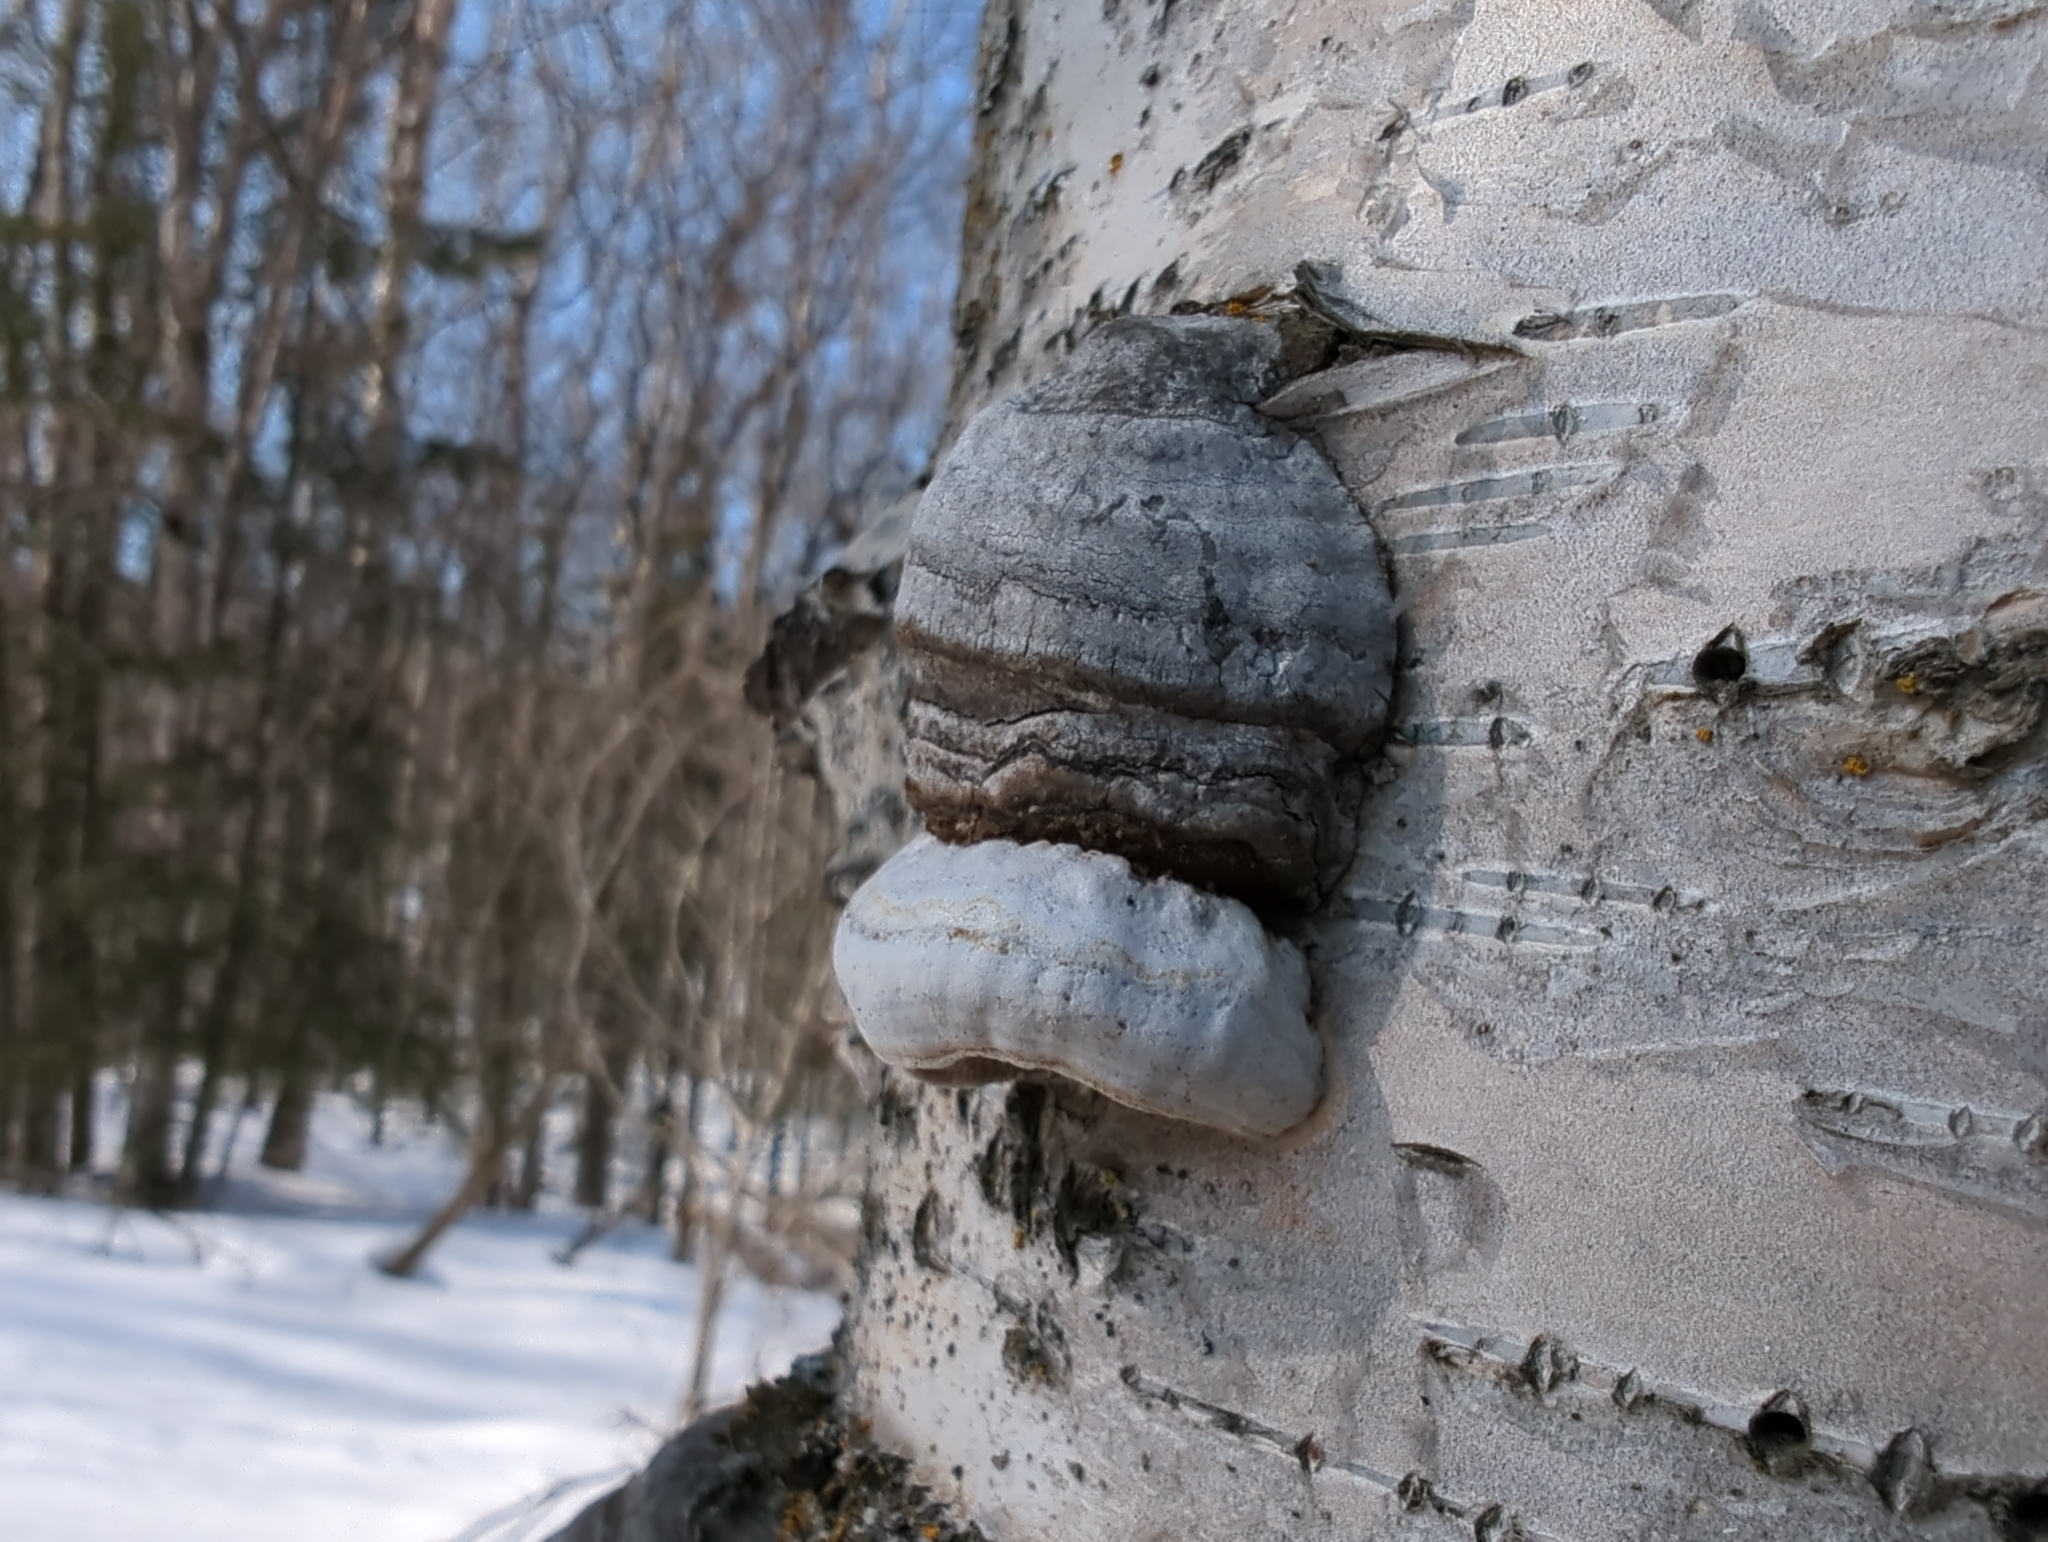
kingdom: Fungi
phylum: Basidiomycota
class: Agaricomycetes
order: Polyporales
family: Polyporaceae
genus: Fomes
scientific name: Fomes fomentarius
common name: Hoof fungus
